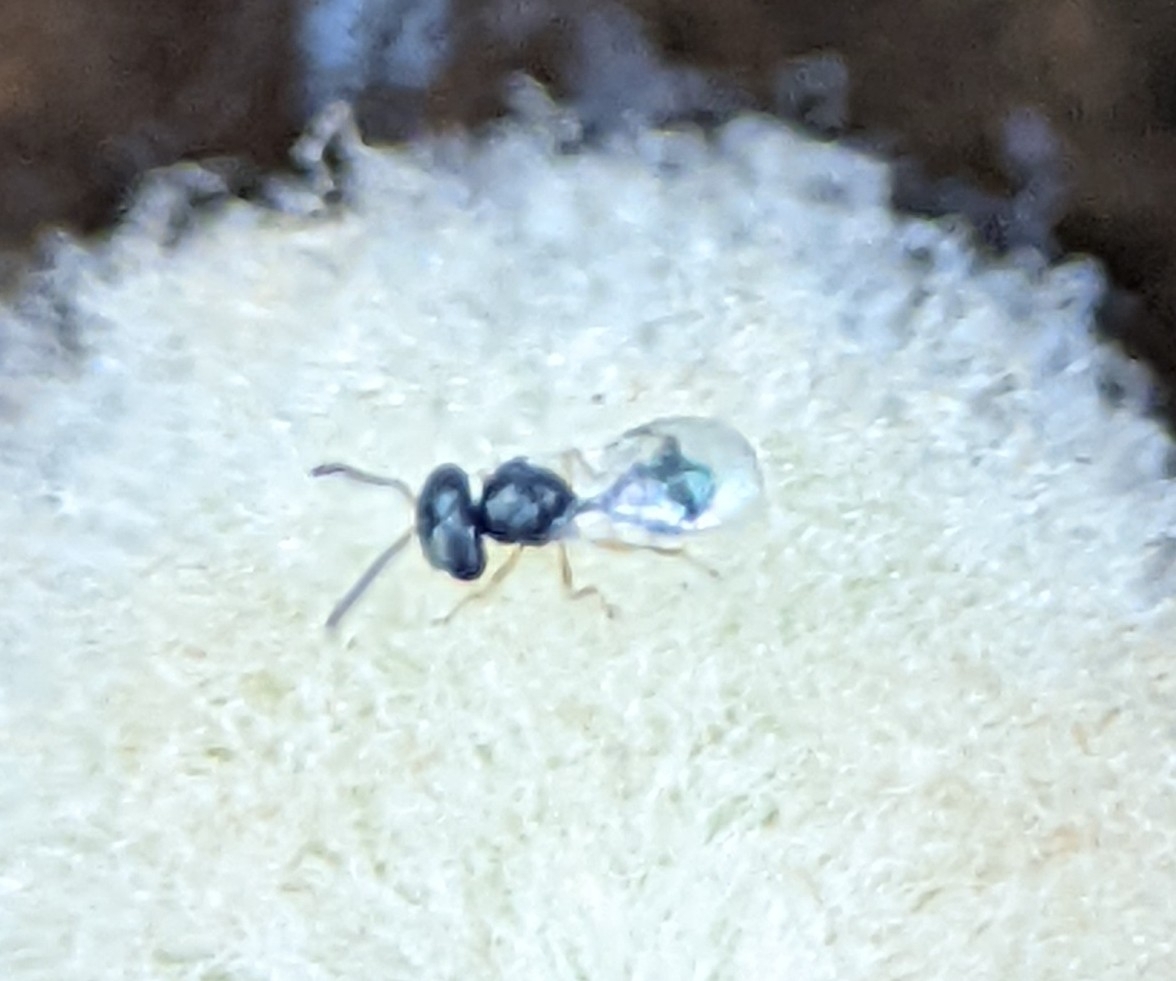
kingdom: Animalia
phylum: Arthropoda
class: Insecta
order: Hymenoptera
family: Pteromalidae
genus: Acroclisoides
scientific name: Acroclisoides sinicus
